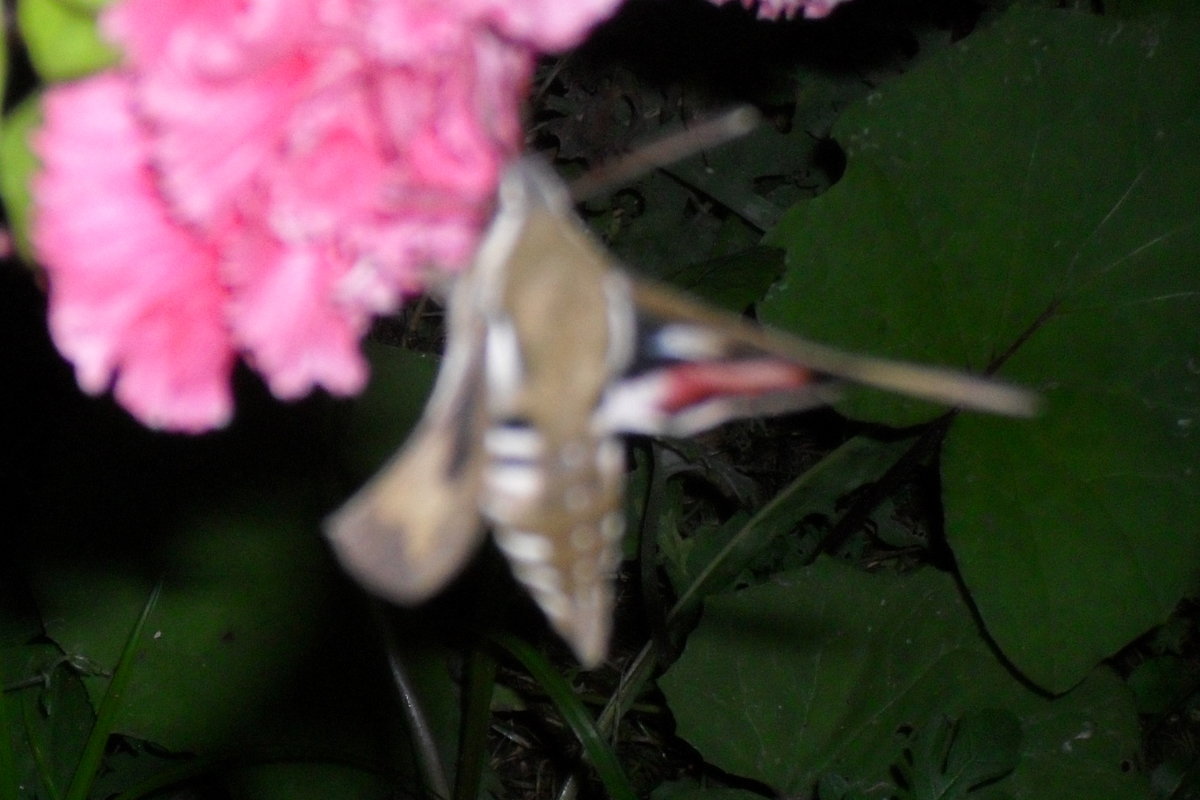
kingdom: Animalia
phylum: Arthropoda
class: Insecta
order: Lepidoptera
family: Sphingidae
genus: Hyles
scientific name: Hyles gallii
